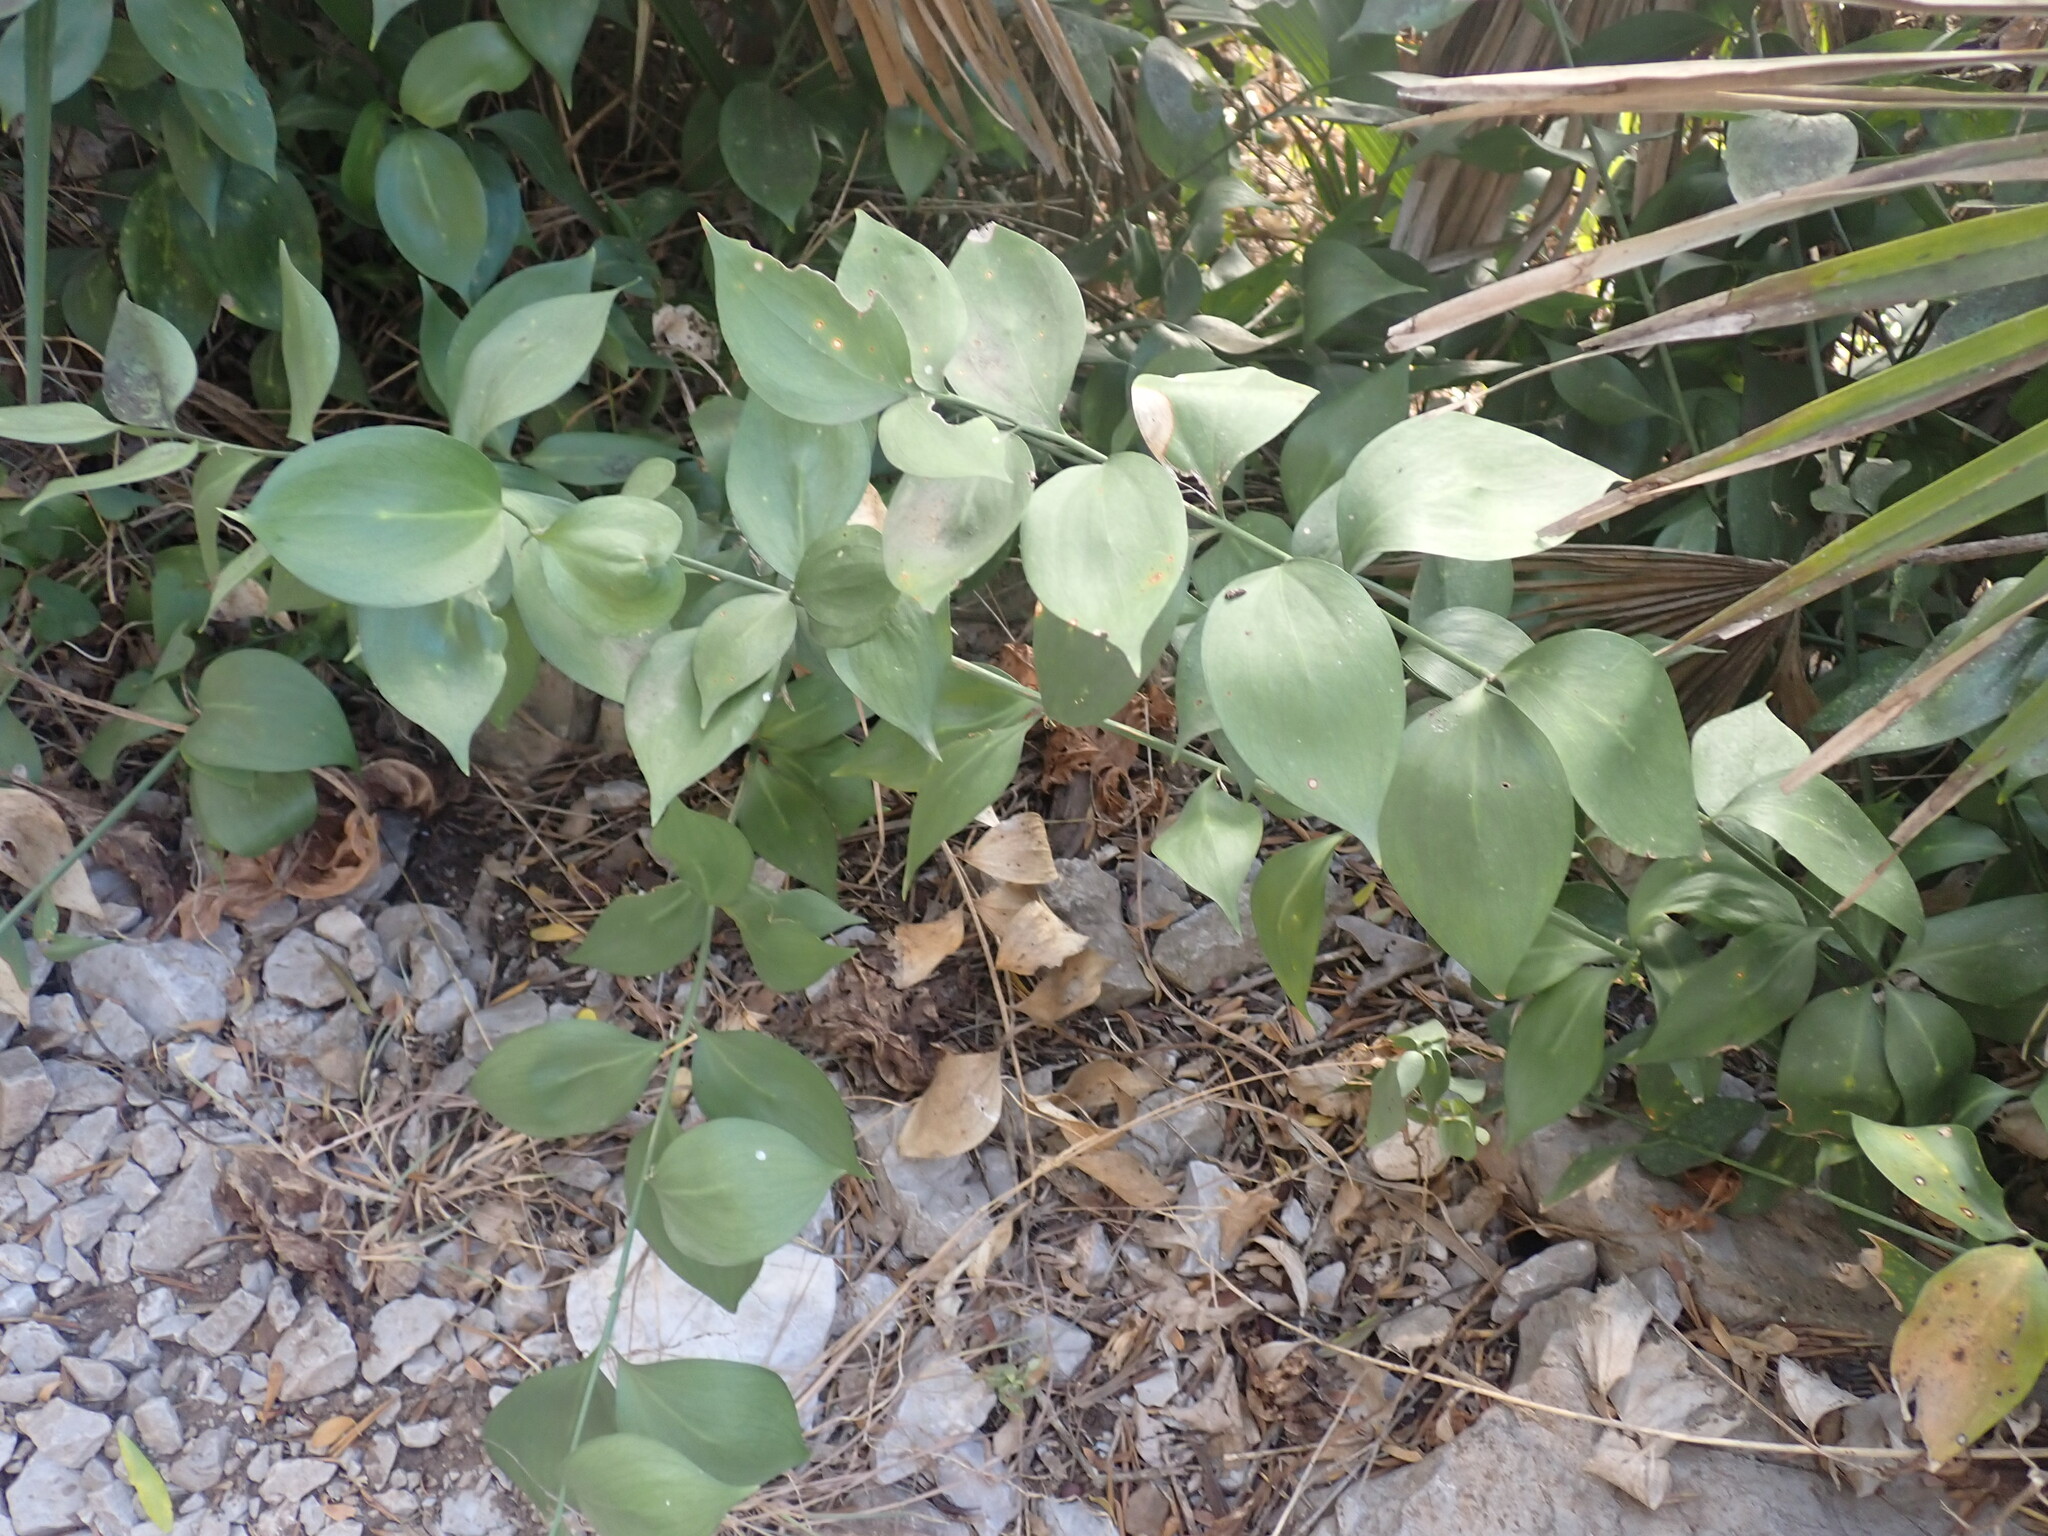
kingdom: Plantae
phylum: Tracheophyta
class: Liliopsida
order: Asparagales
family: Asparagaceae
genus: Ruscus
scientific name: Ruscus hypophyllum
